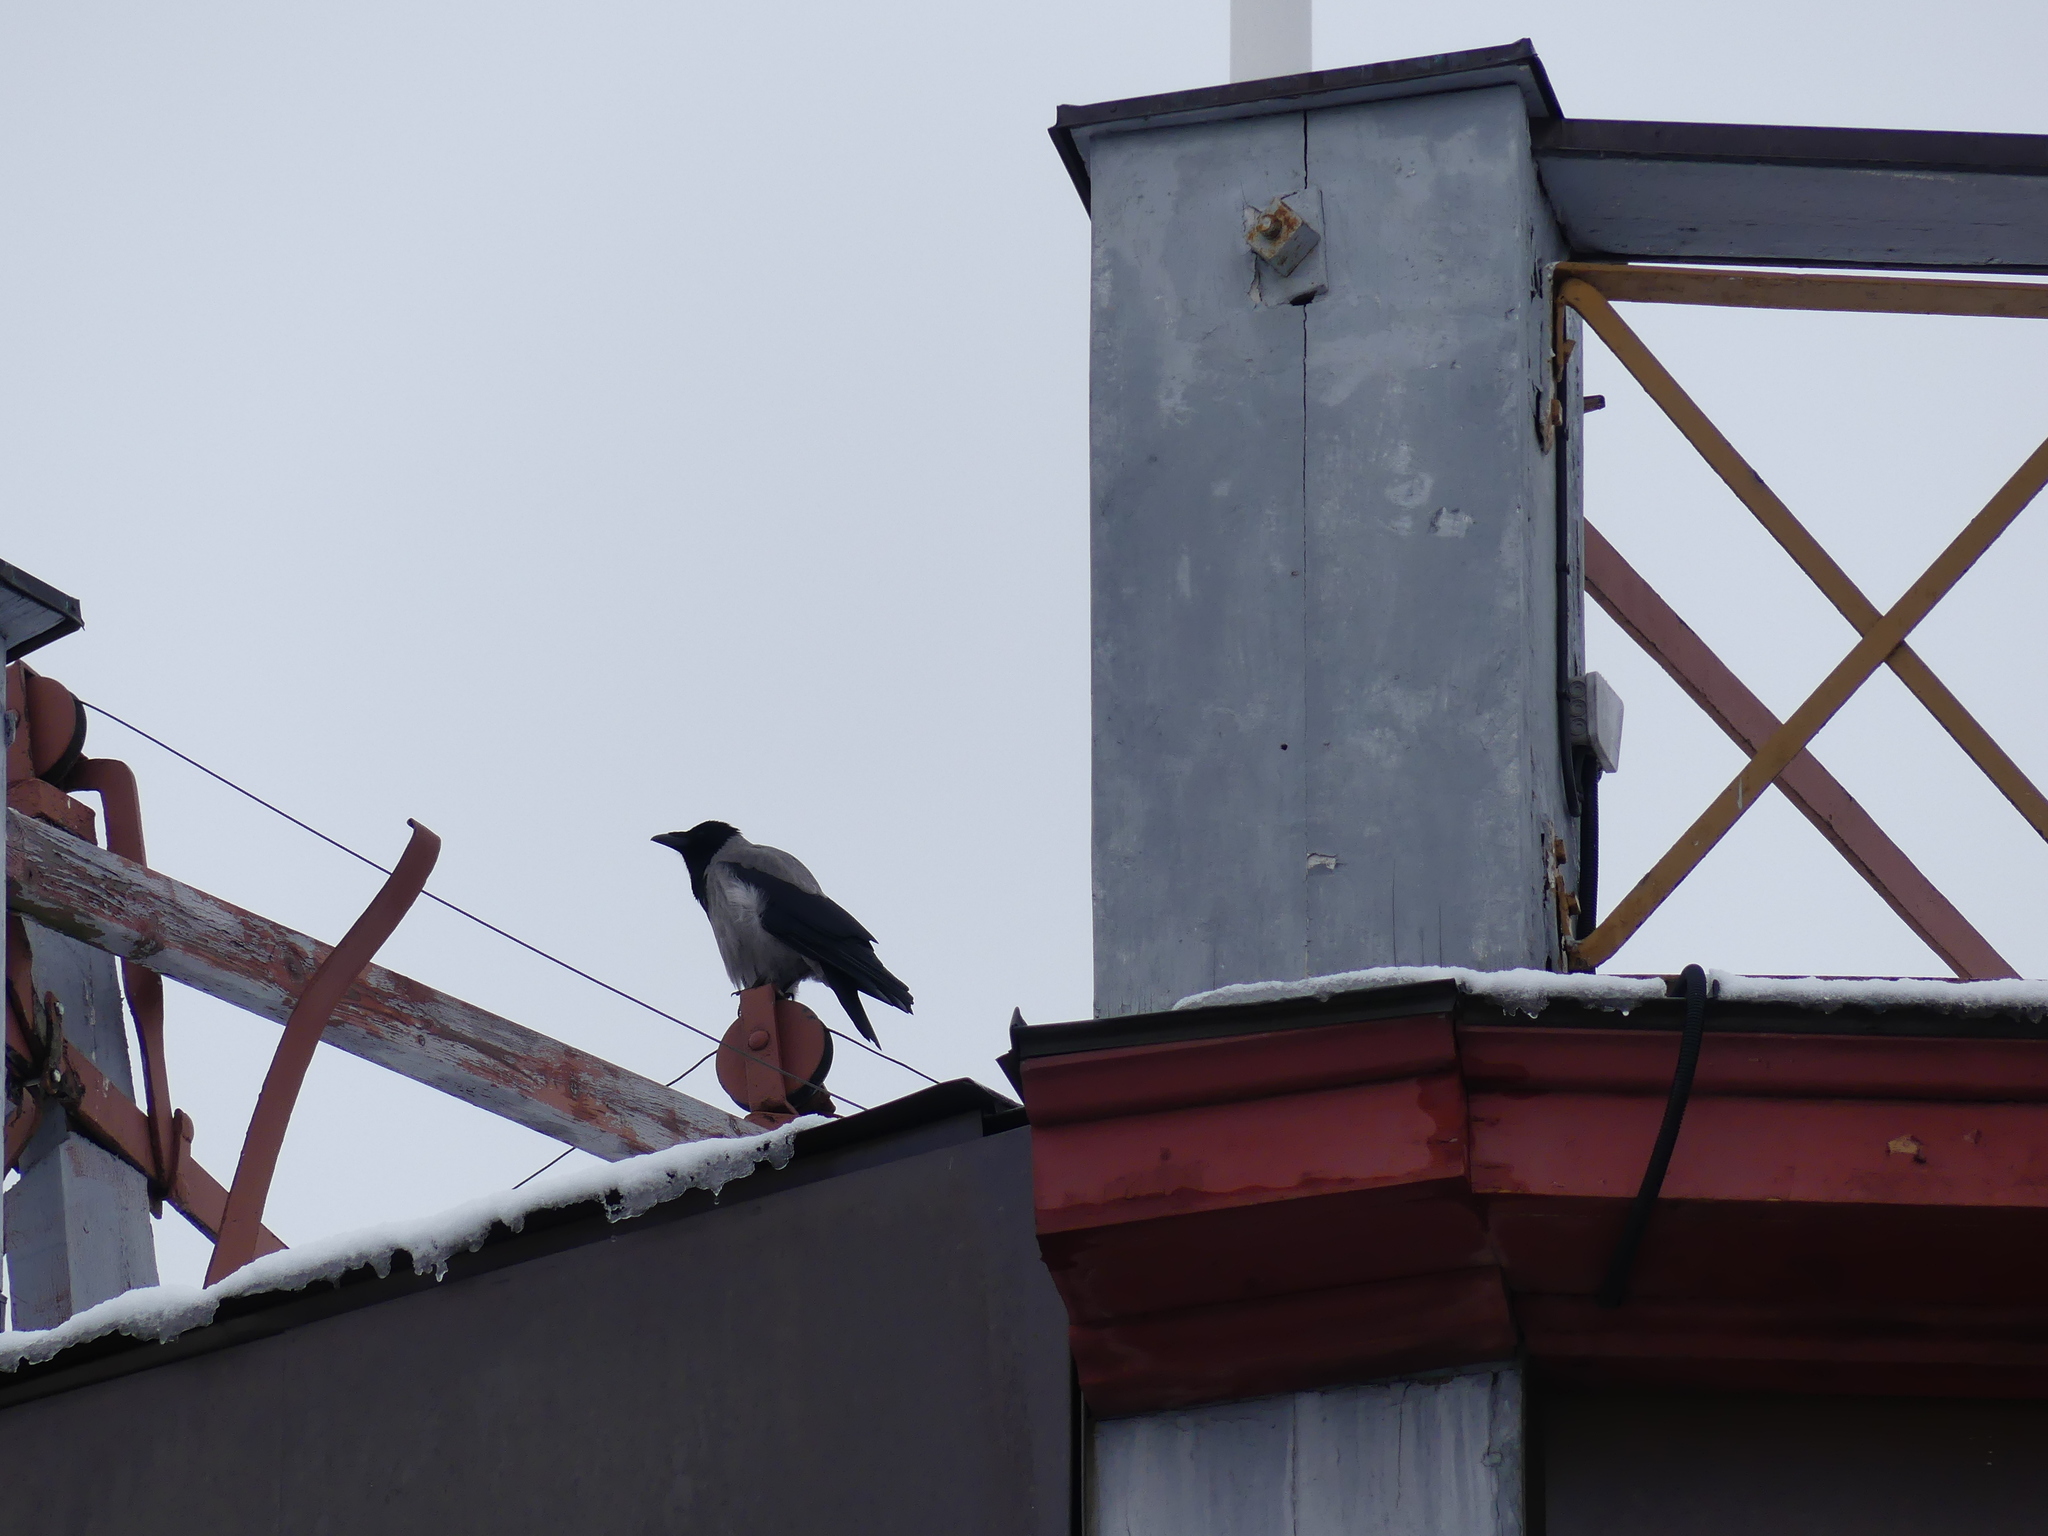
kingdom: Animalia
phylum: Chordata
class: Aves
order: Passeriformes
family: Corvidae
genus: Corvus
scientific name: Corvus cornix
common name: Hooded crow
